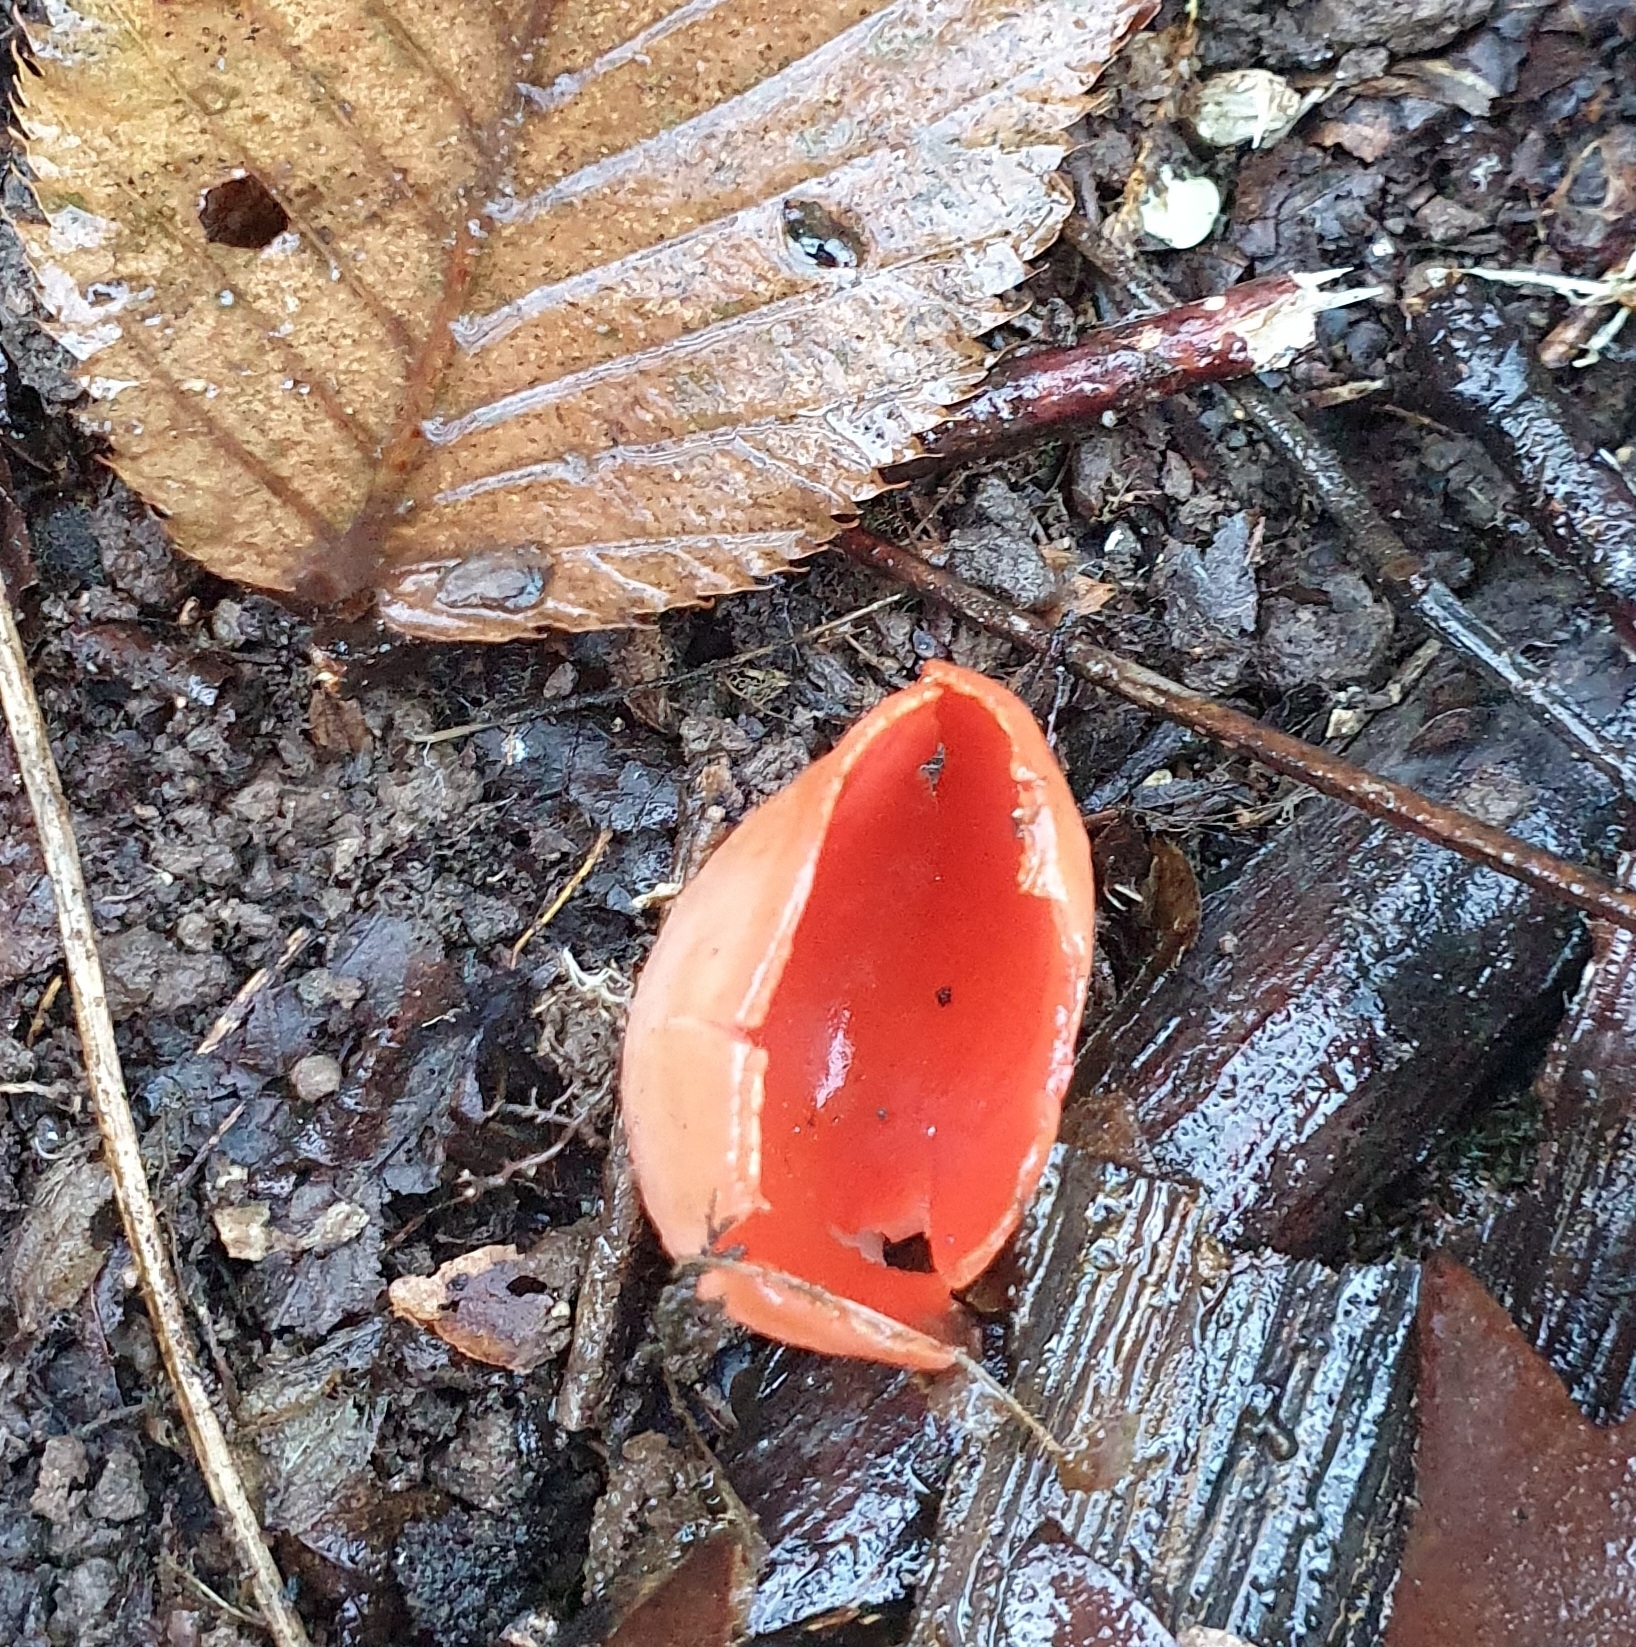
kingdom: Fungi
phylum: Ascomycota
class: Pezizomycetes
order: Pezizales
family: Sarcoscyphaceae
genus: Sarcoscypha
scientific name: Sarcoscypha
